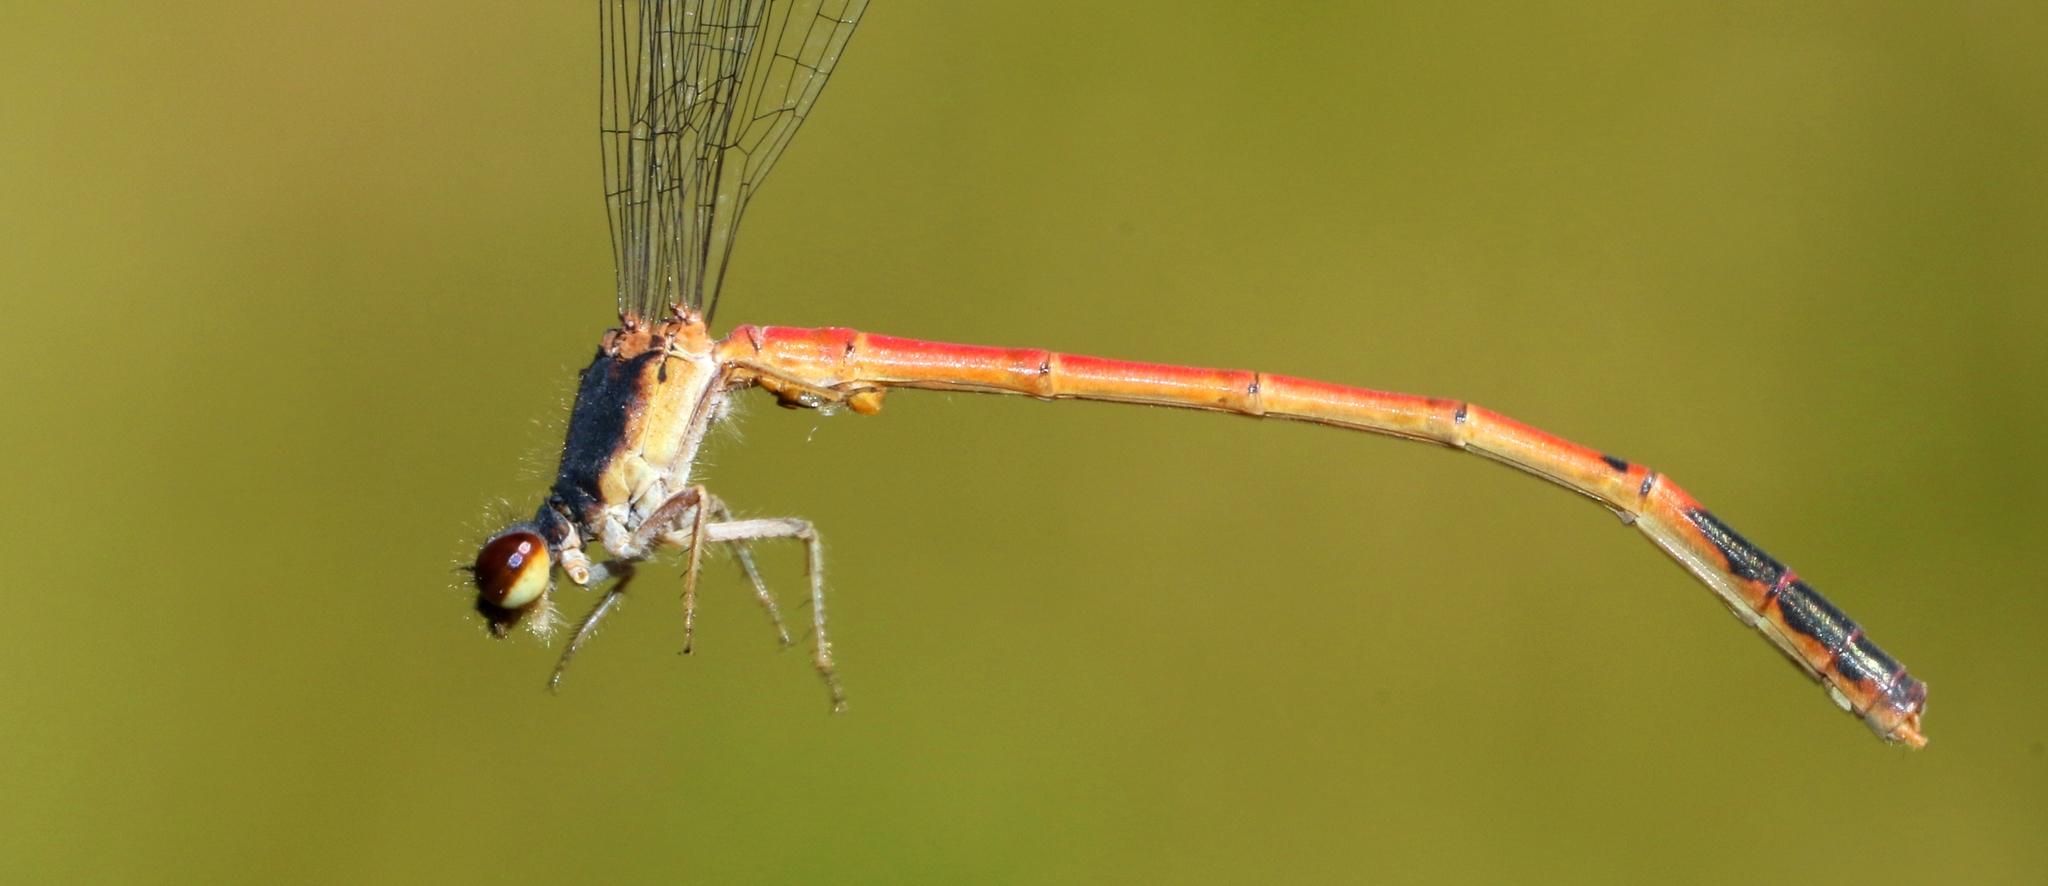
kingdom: Animalia
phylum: Arthropoda
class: Insecta
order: Odonata
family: Coenagrionidae
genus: Amphiagrion
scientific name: Amphiagrion saucium
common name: Eastern red damsel
